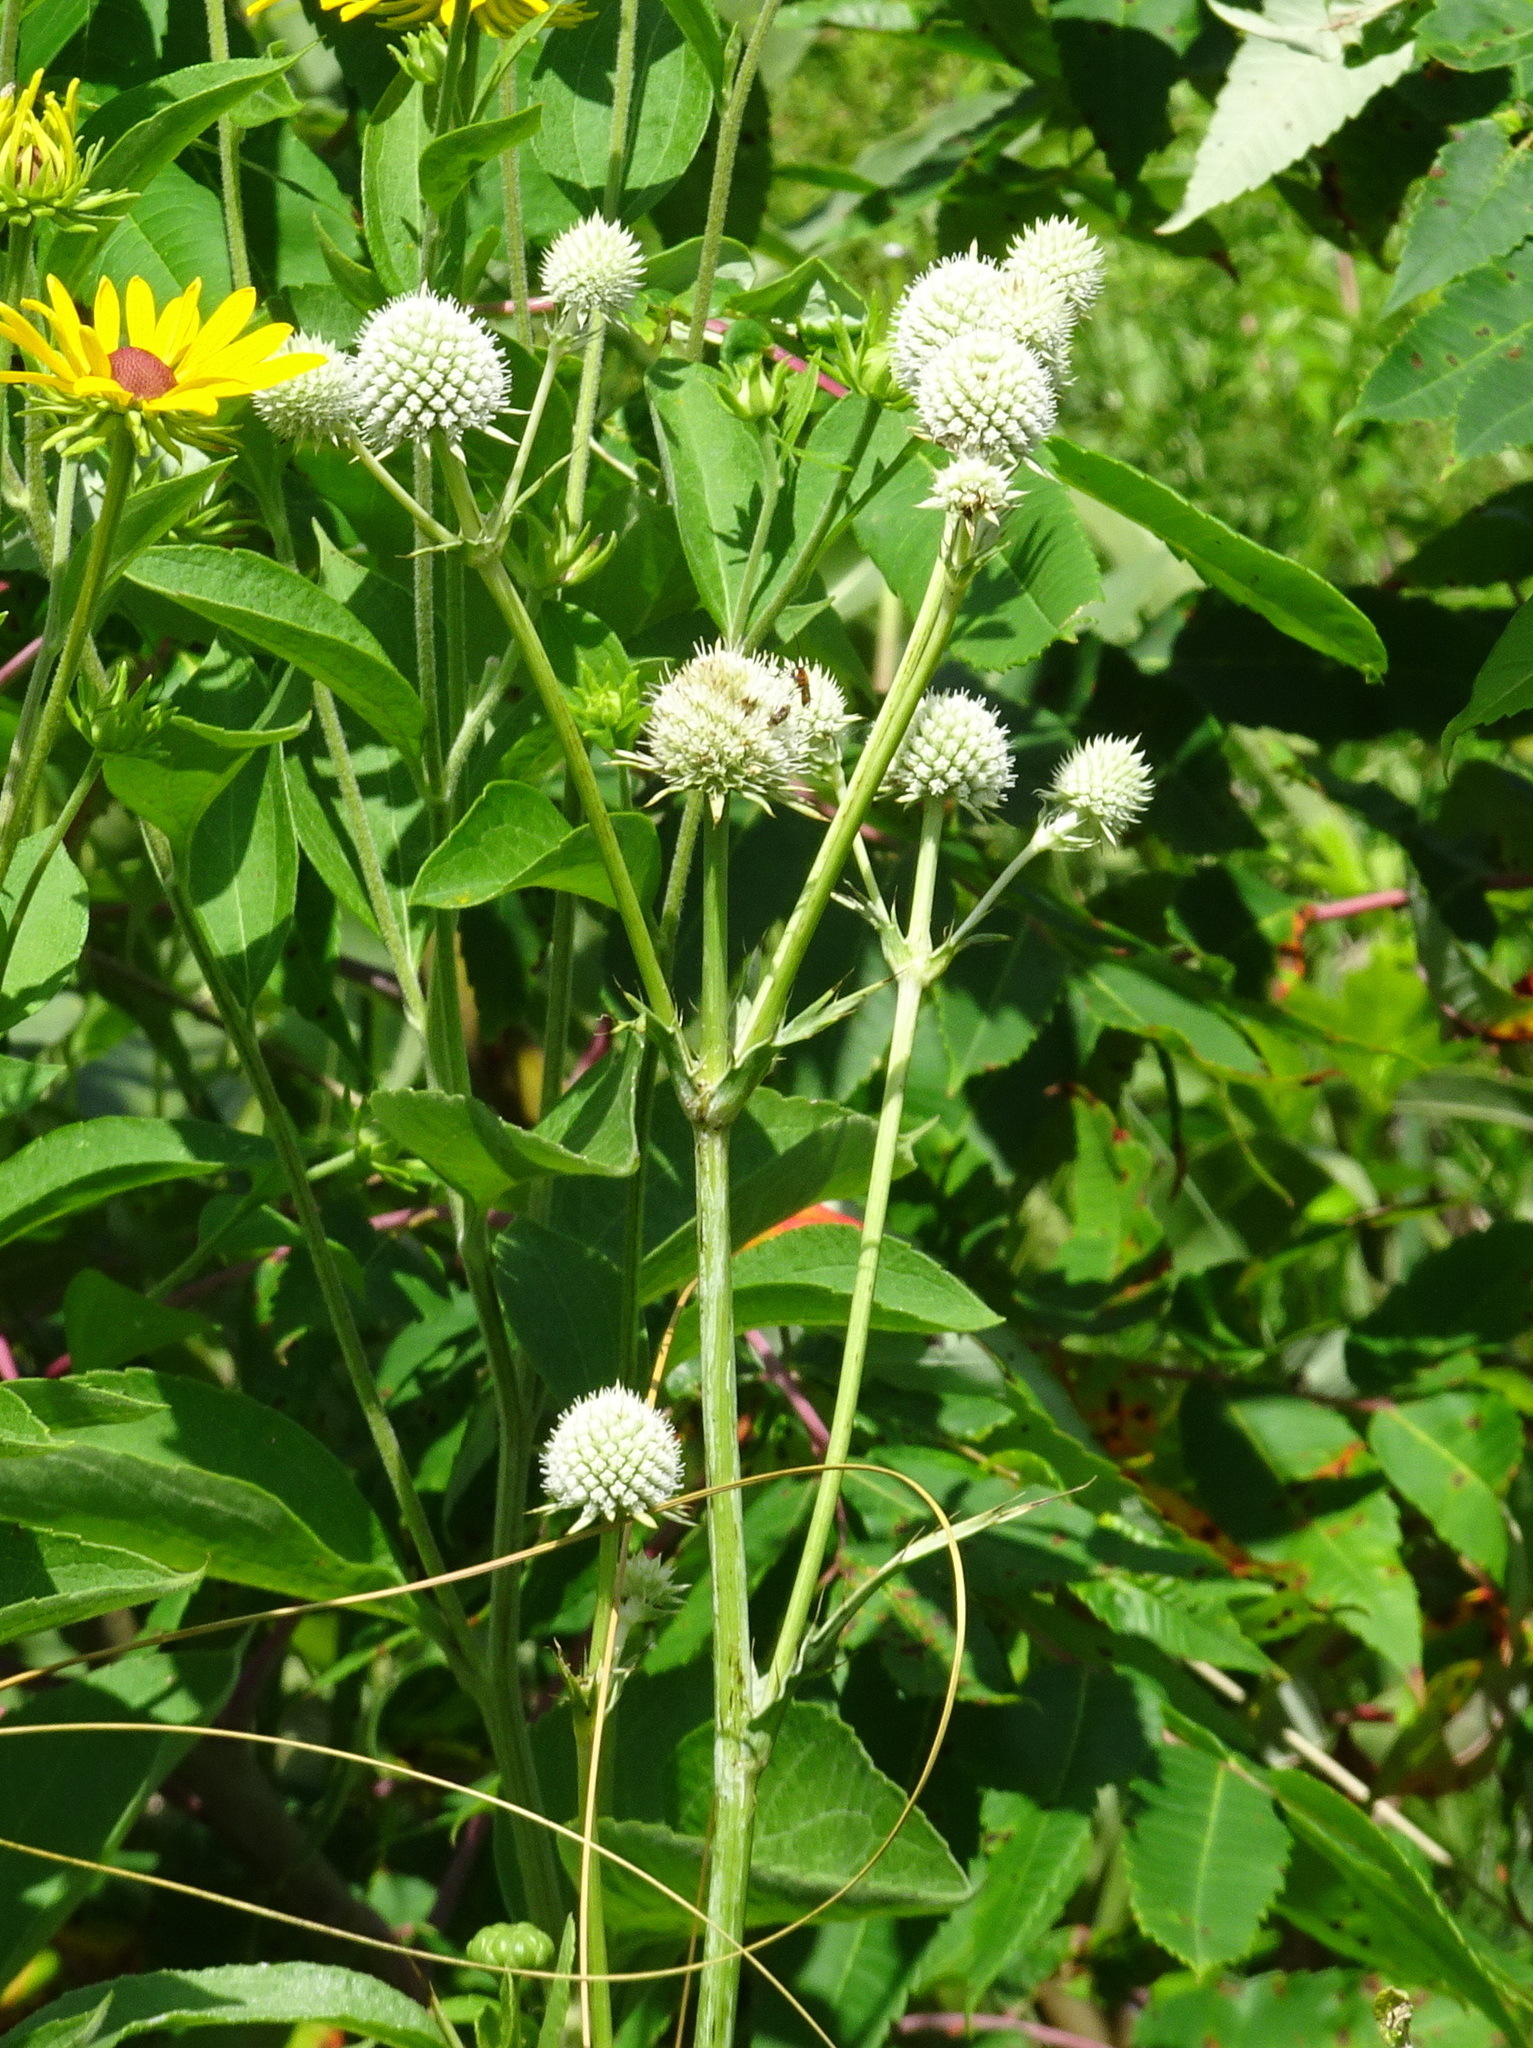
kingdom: Plantae
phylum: Tracheophyta
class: Magnoliopsida
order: Apiales
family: Apiaceae
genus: Eryngium
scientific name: Eryngium yuccifolium
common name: Button eryngo
